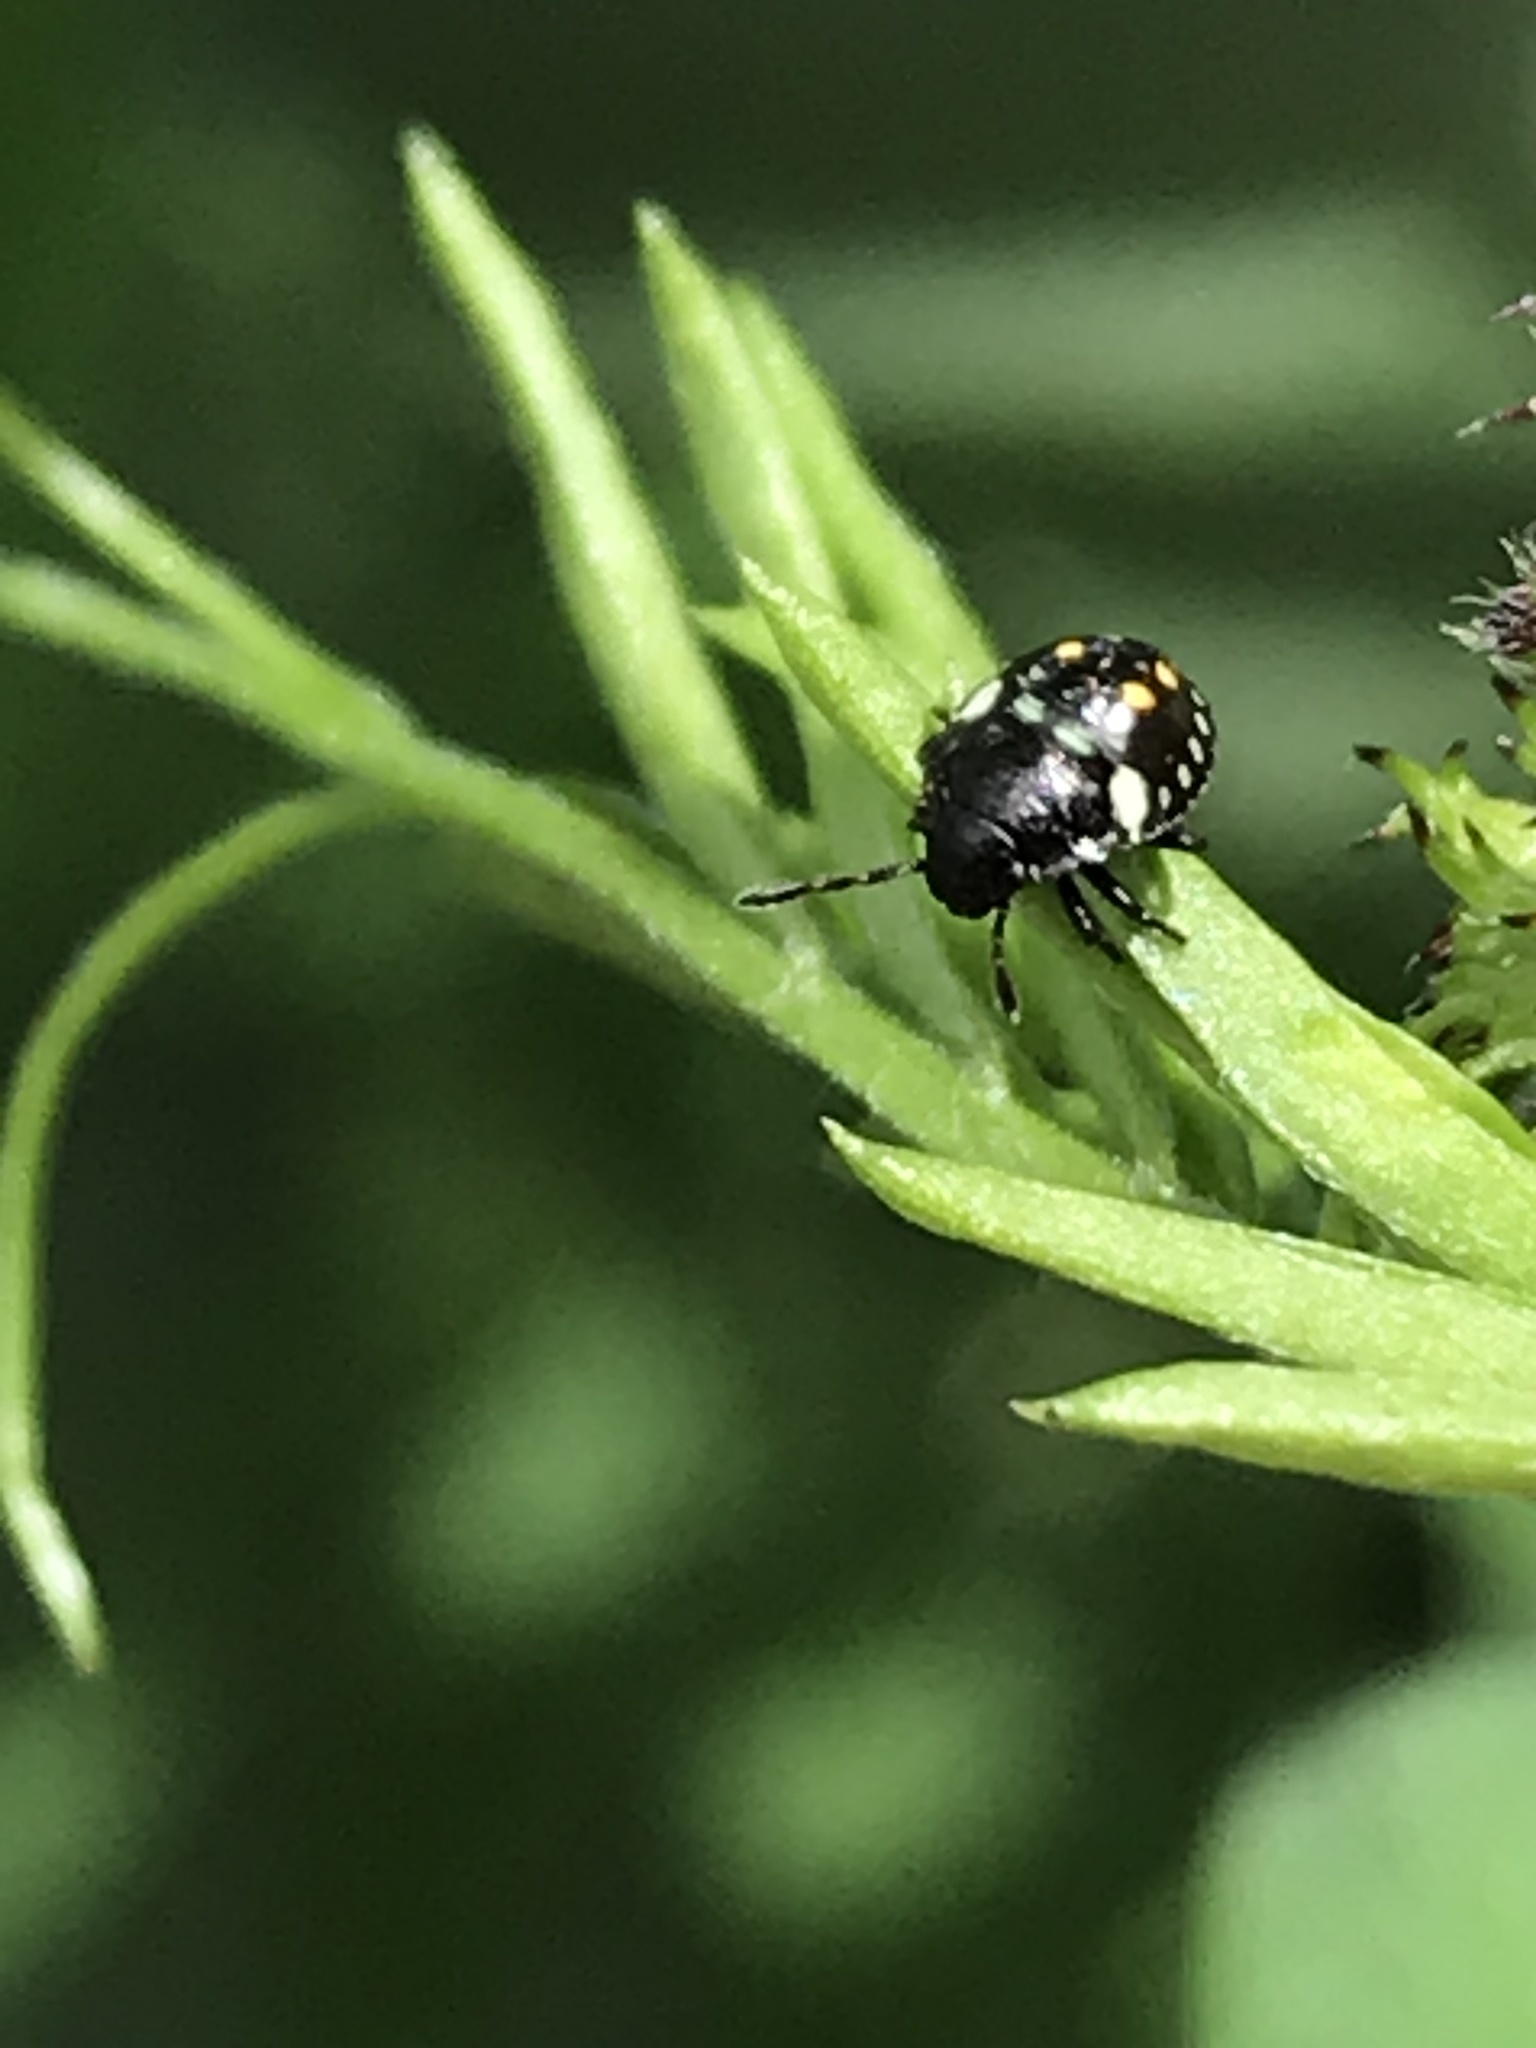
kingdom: Animalia
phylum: Arthropoda
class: Insecta
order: Hemiptera
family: Pentatomidae
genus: Nezara
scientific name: Nezara viridula
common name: Southern green stink bug
